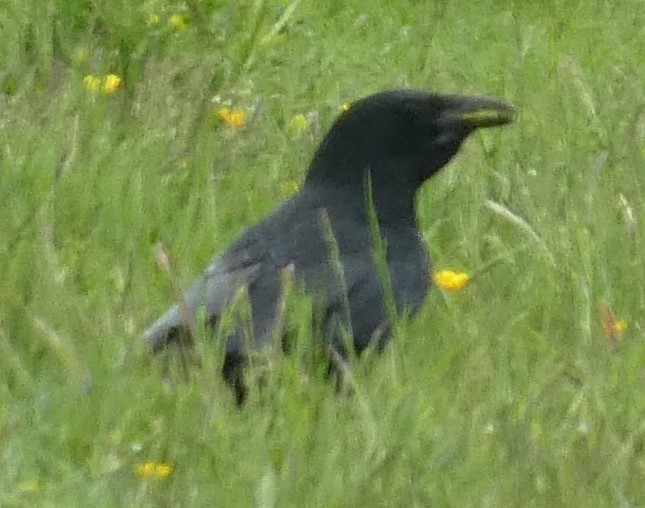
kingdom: Animalia
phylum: Chordata
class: Aves
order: Passeriformes
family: Corvidae
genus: Corvus
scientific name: Corvus corone
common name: Carrion crow
